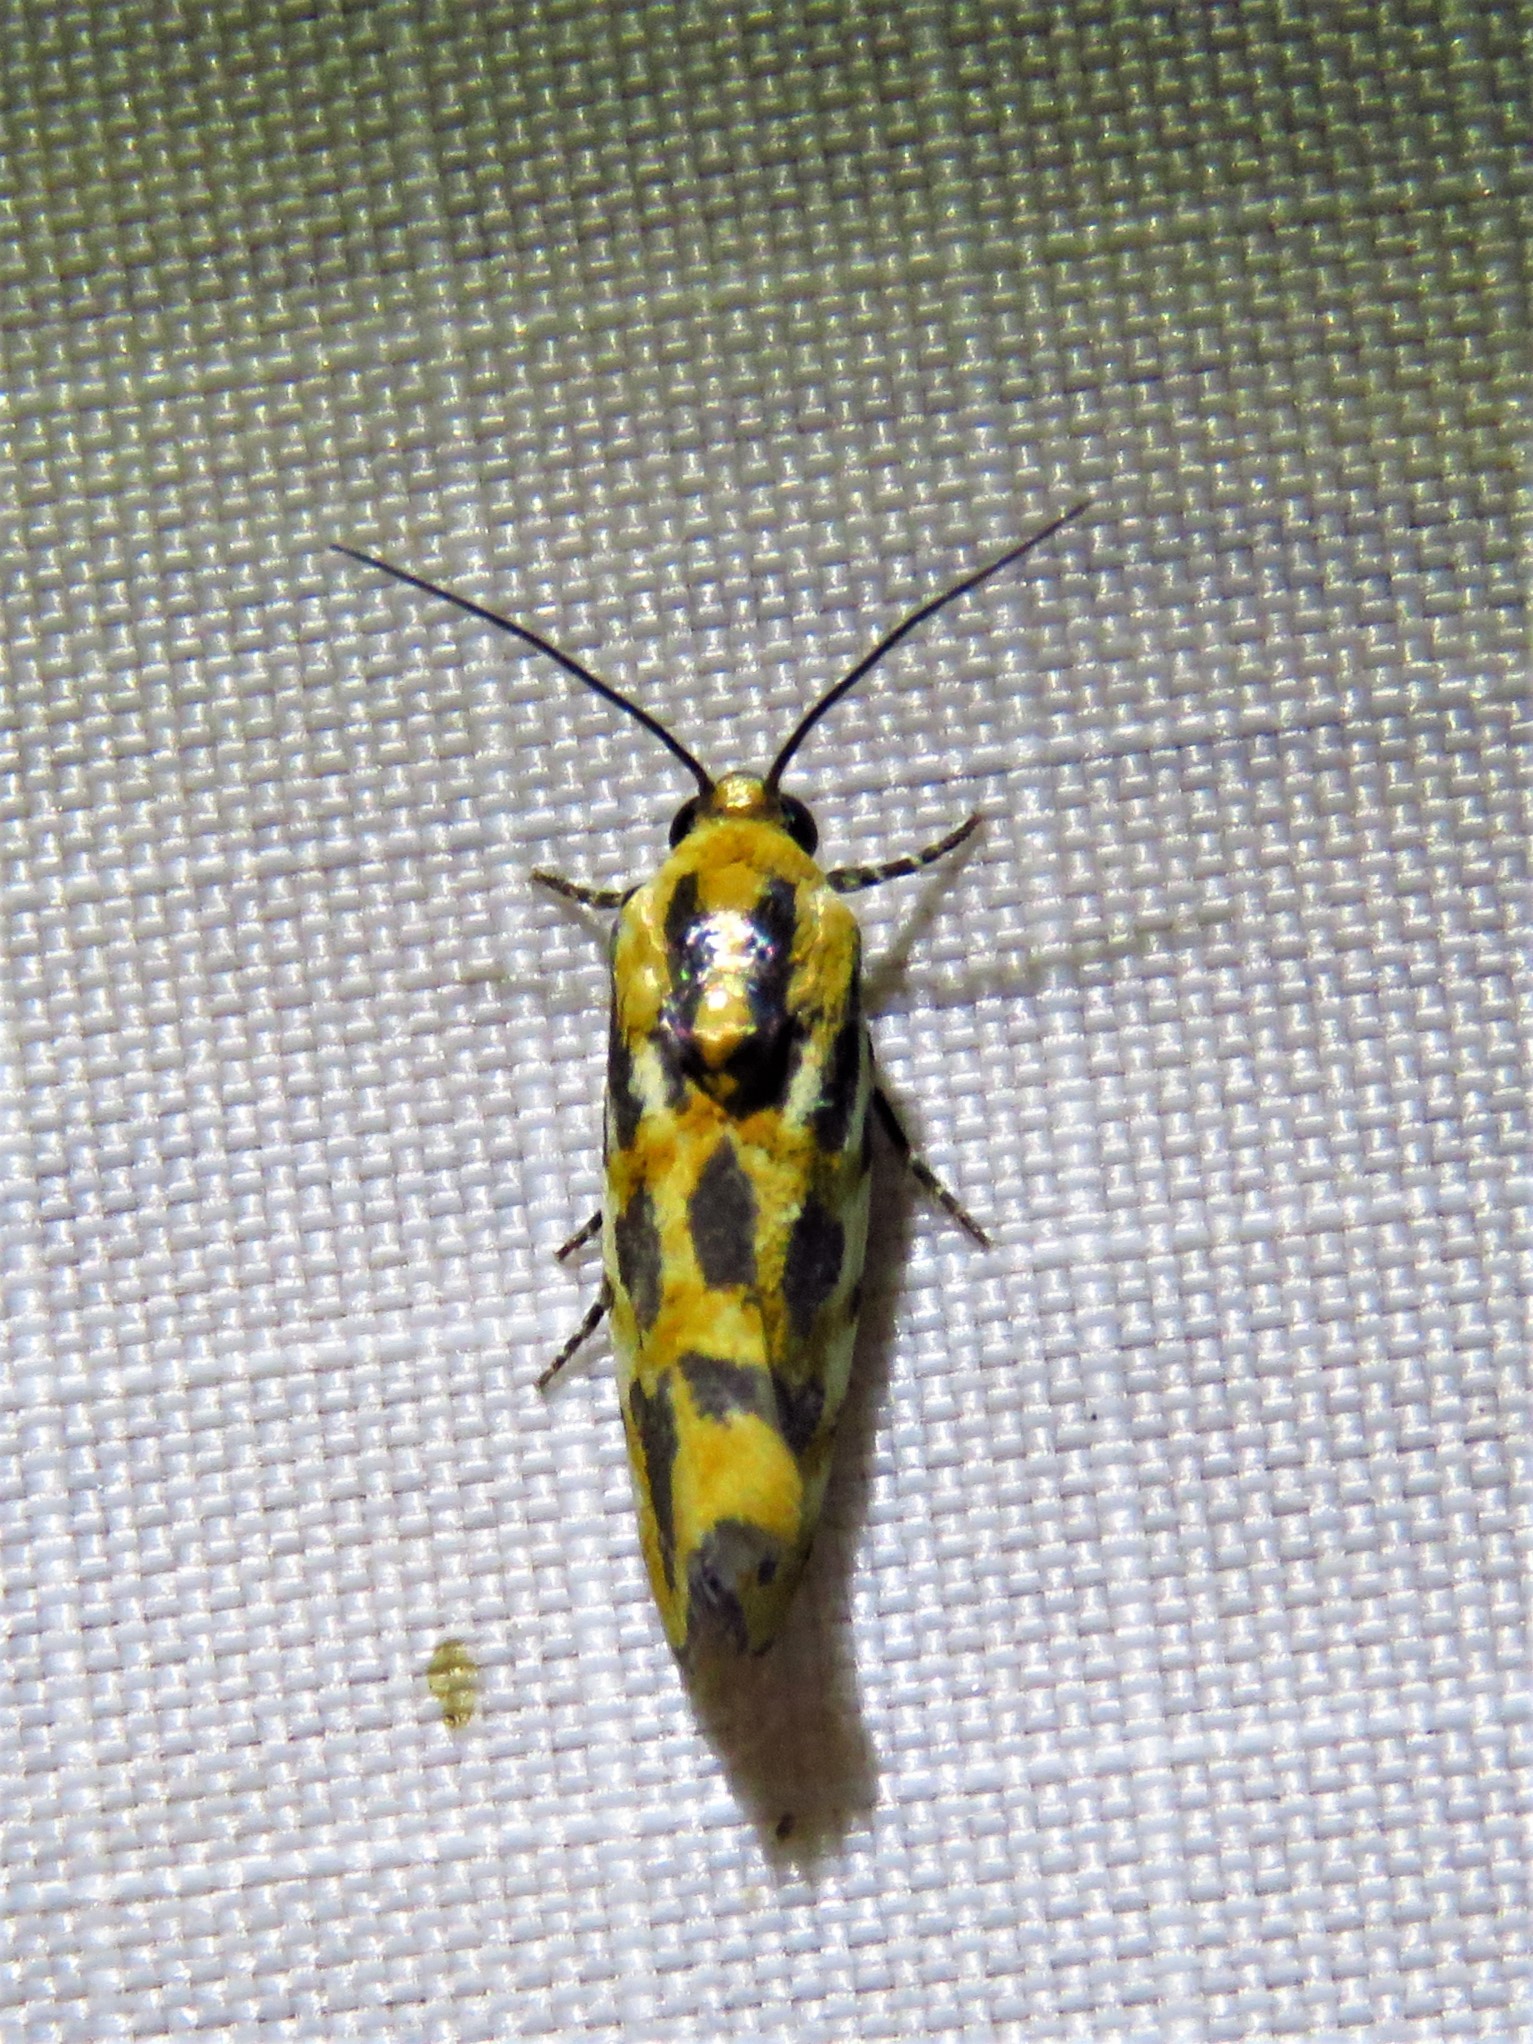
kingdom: Animalia
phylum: Arthropoda
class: Insecta
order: Lepidoptera
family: Noctuidae
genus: Acontia
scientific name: Acontia leo
